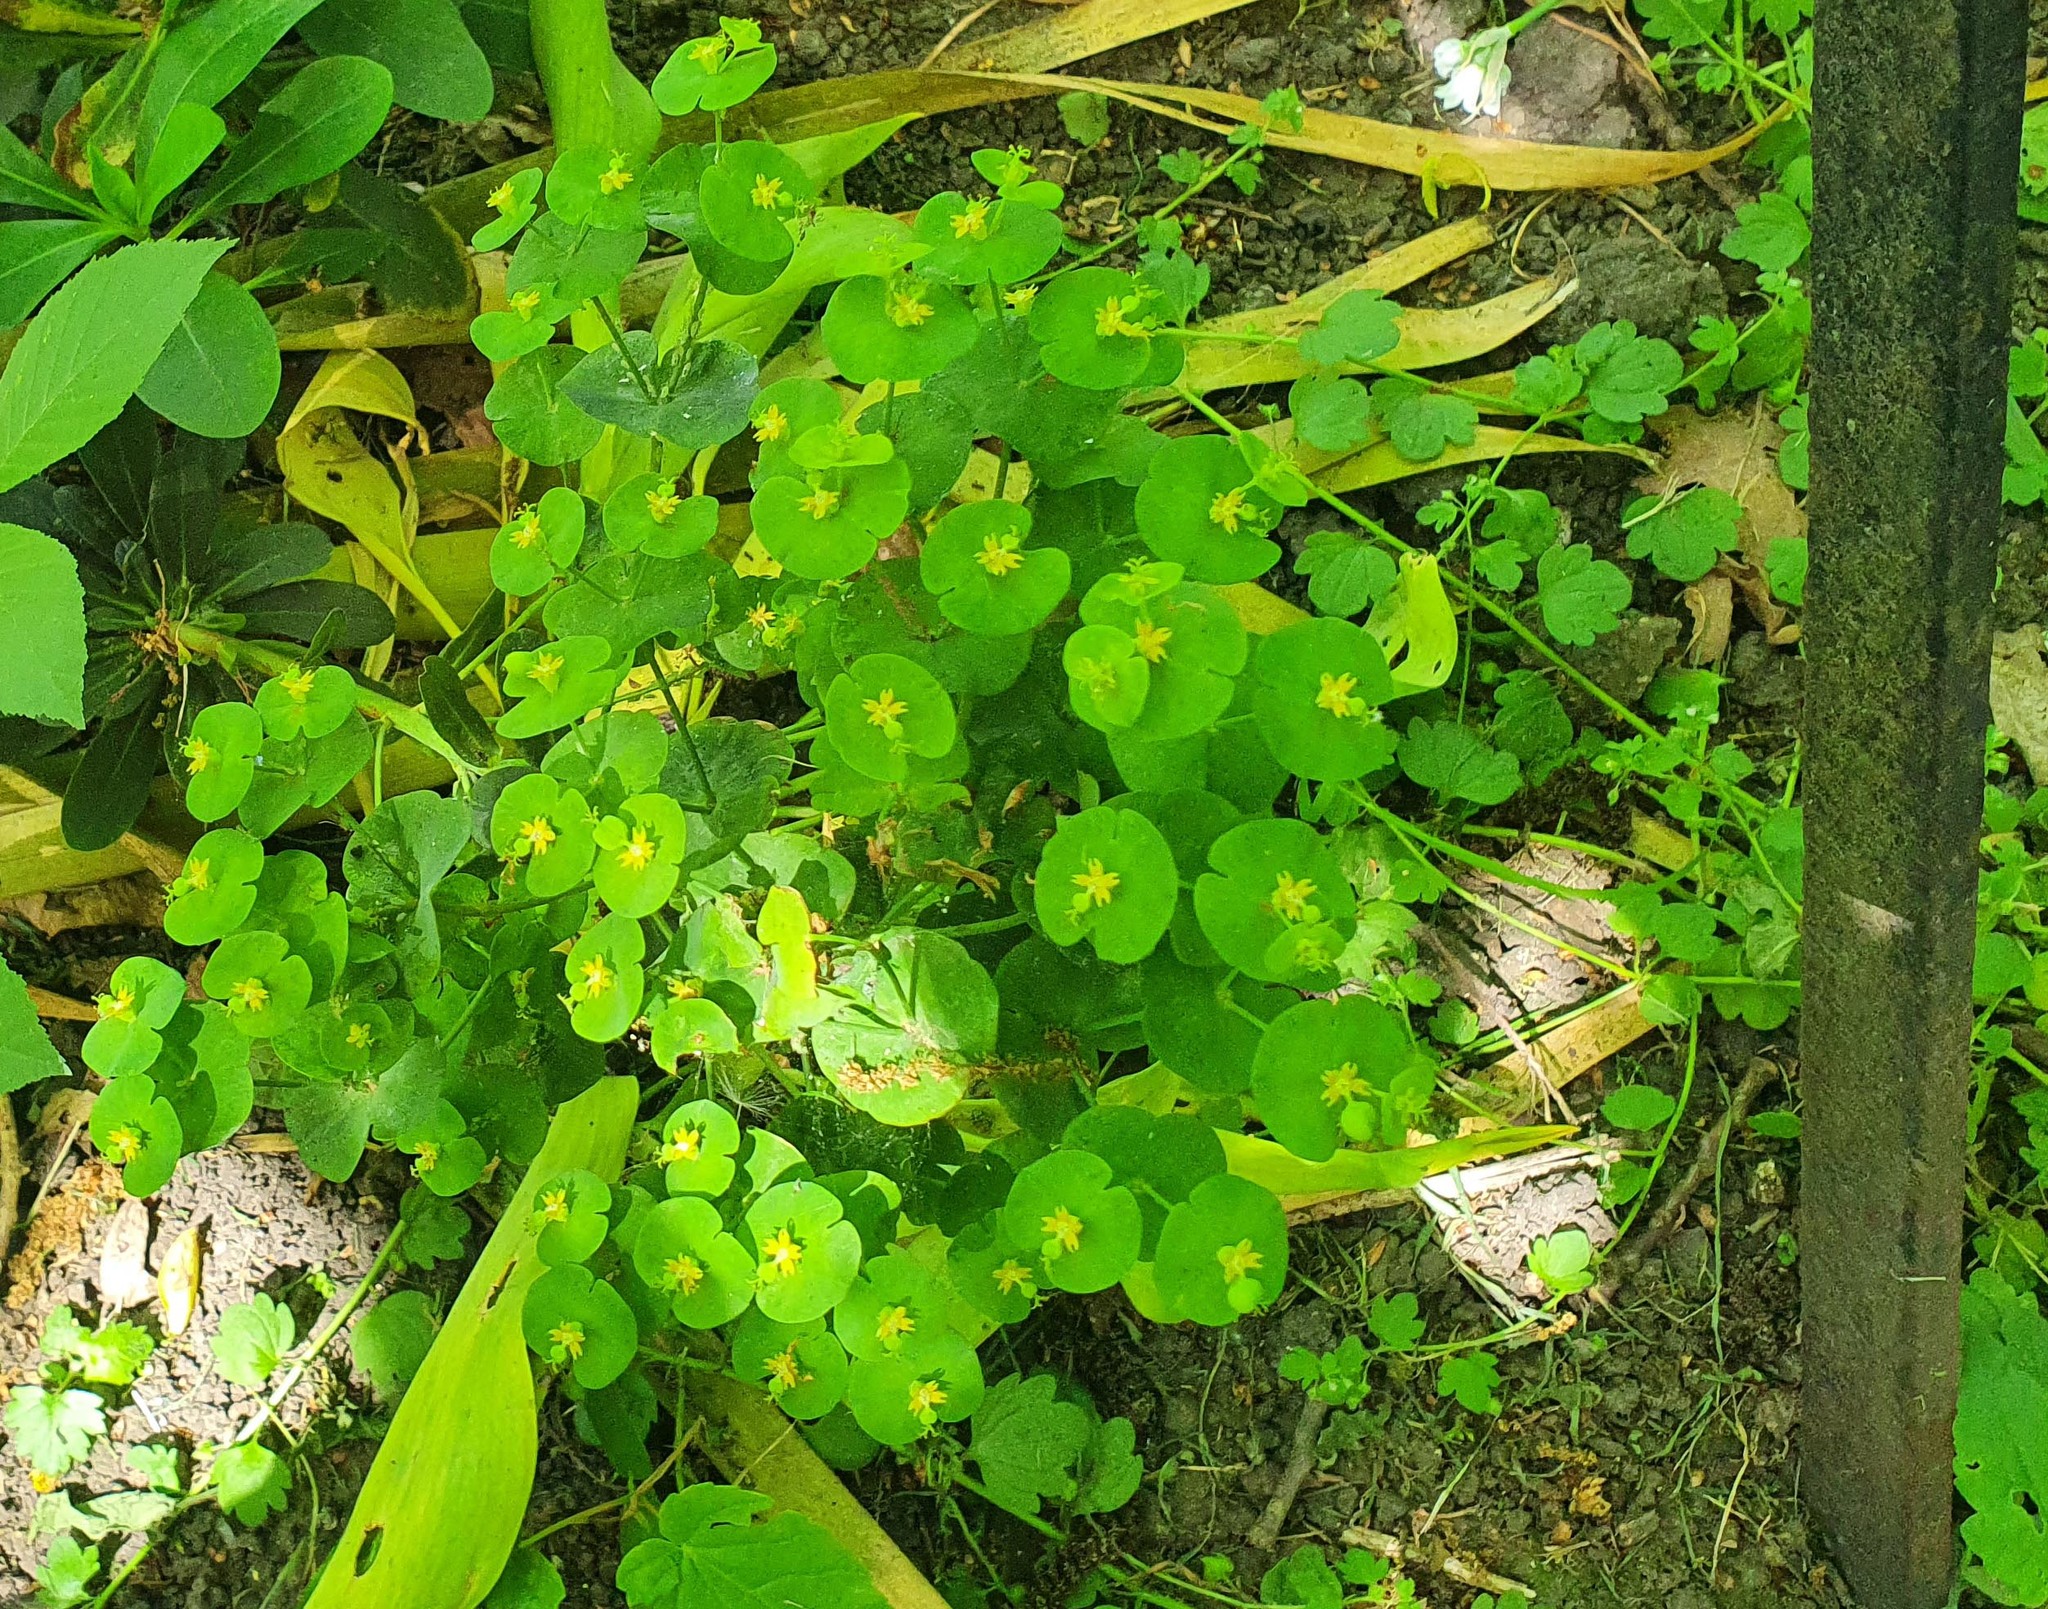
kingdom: Plantae
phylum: Tracheophyta
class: Magnoliopsida
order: Malpighiales
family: Euphorbiaceae
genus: Euphorbia
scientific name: Euphorbia amygdaloides
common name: Wood spurge
